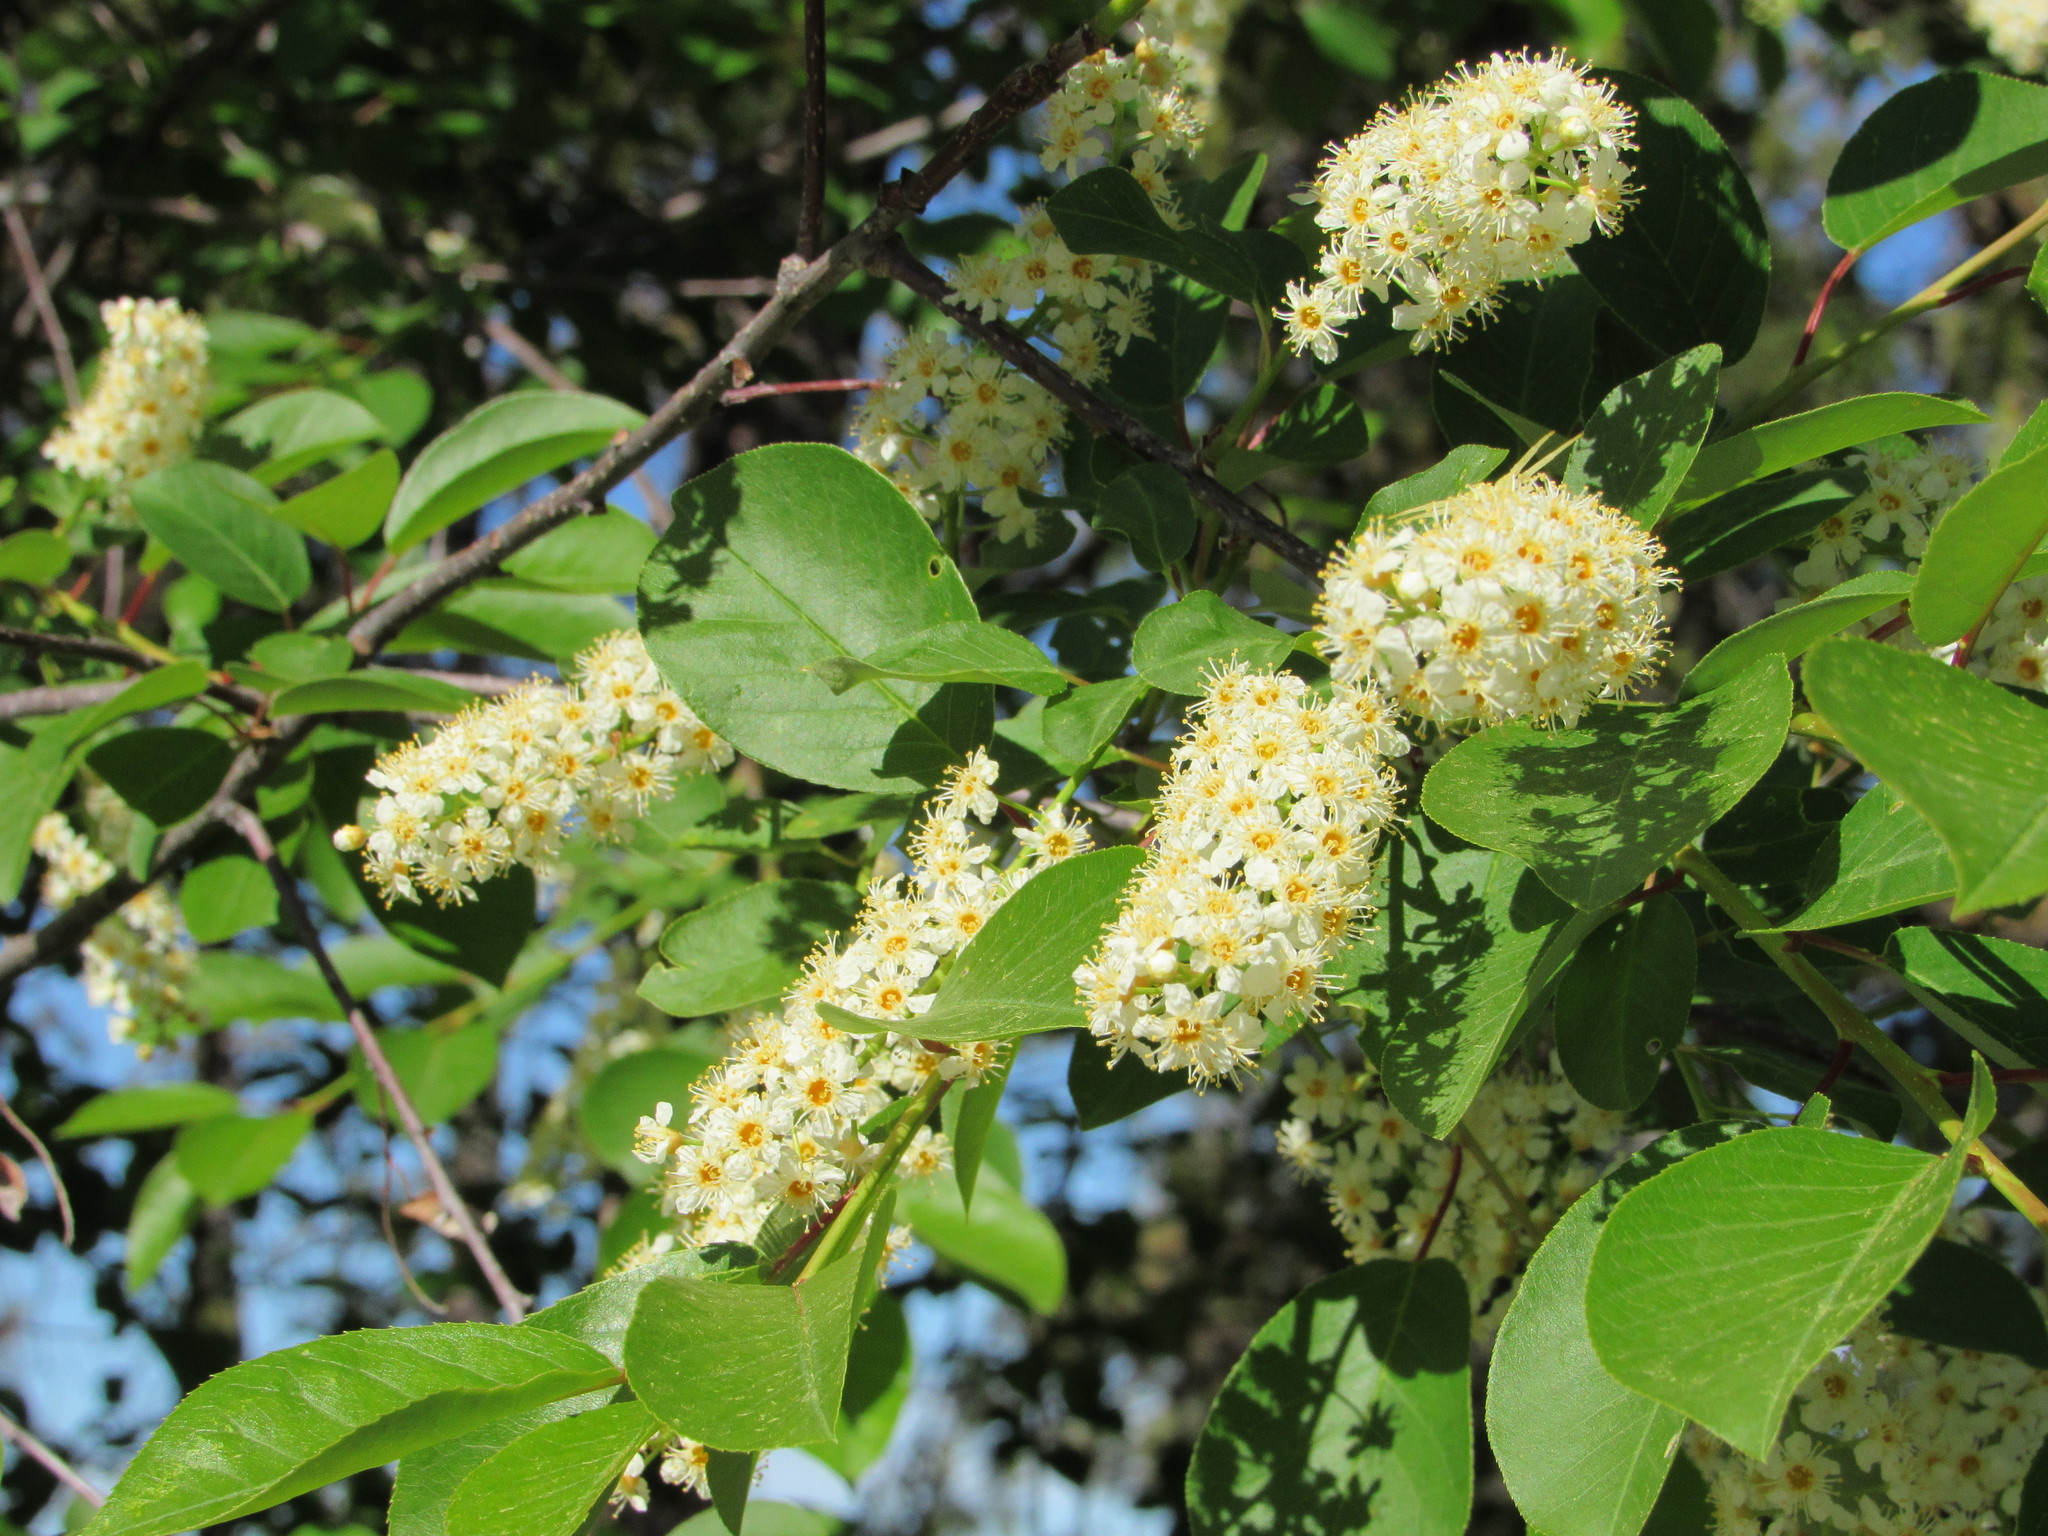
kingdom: Plantae
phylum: Tracheophyta
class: Magnoliopsida
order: Rosales
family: Rosaceae
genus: Prunus
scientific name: Prunus virginiana
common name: Chokecherry
